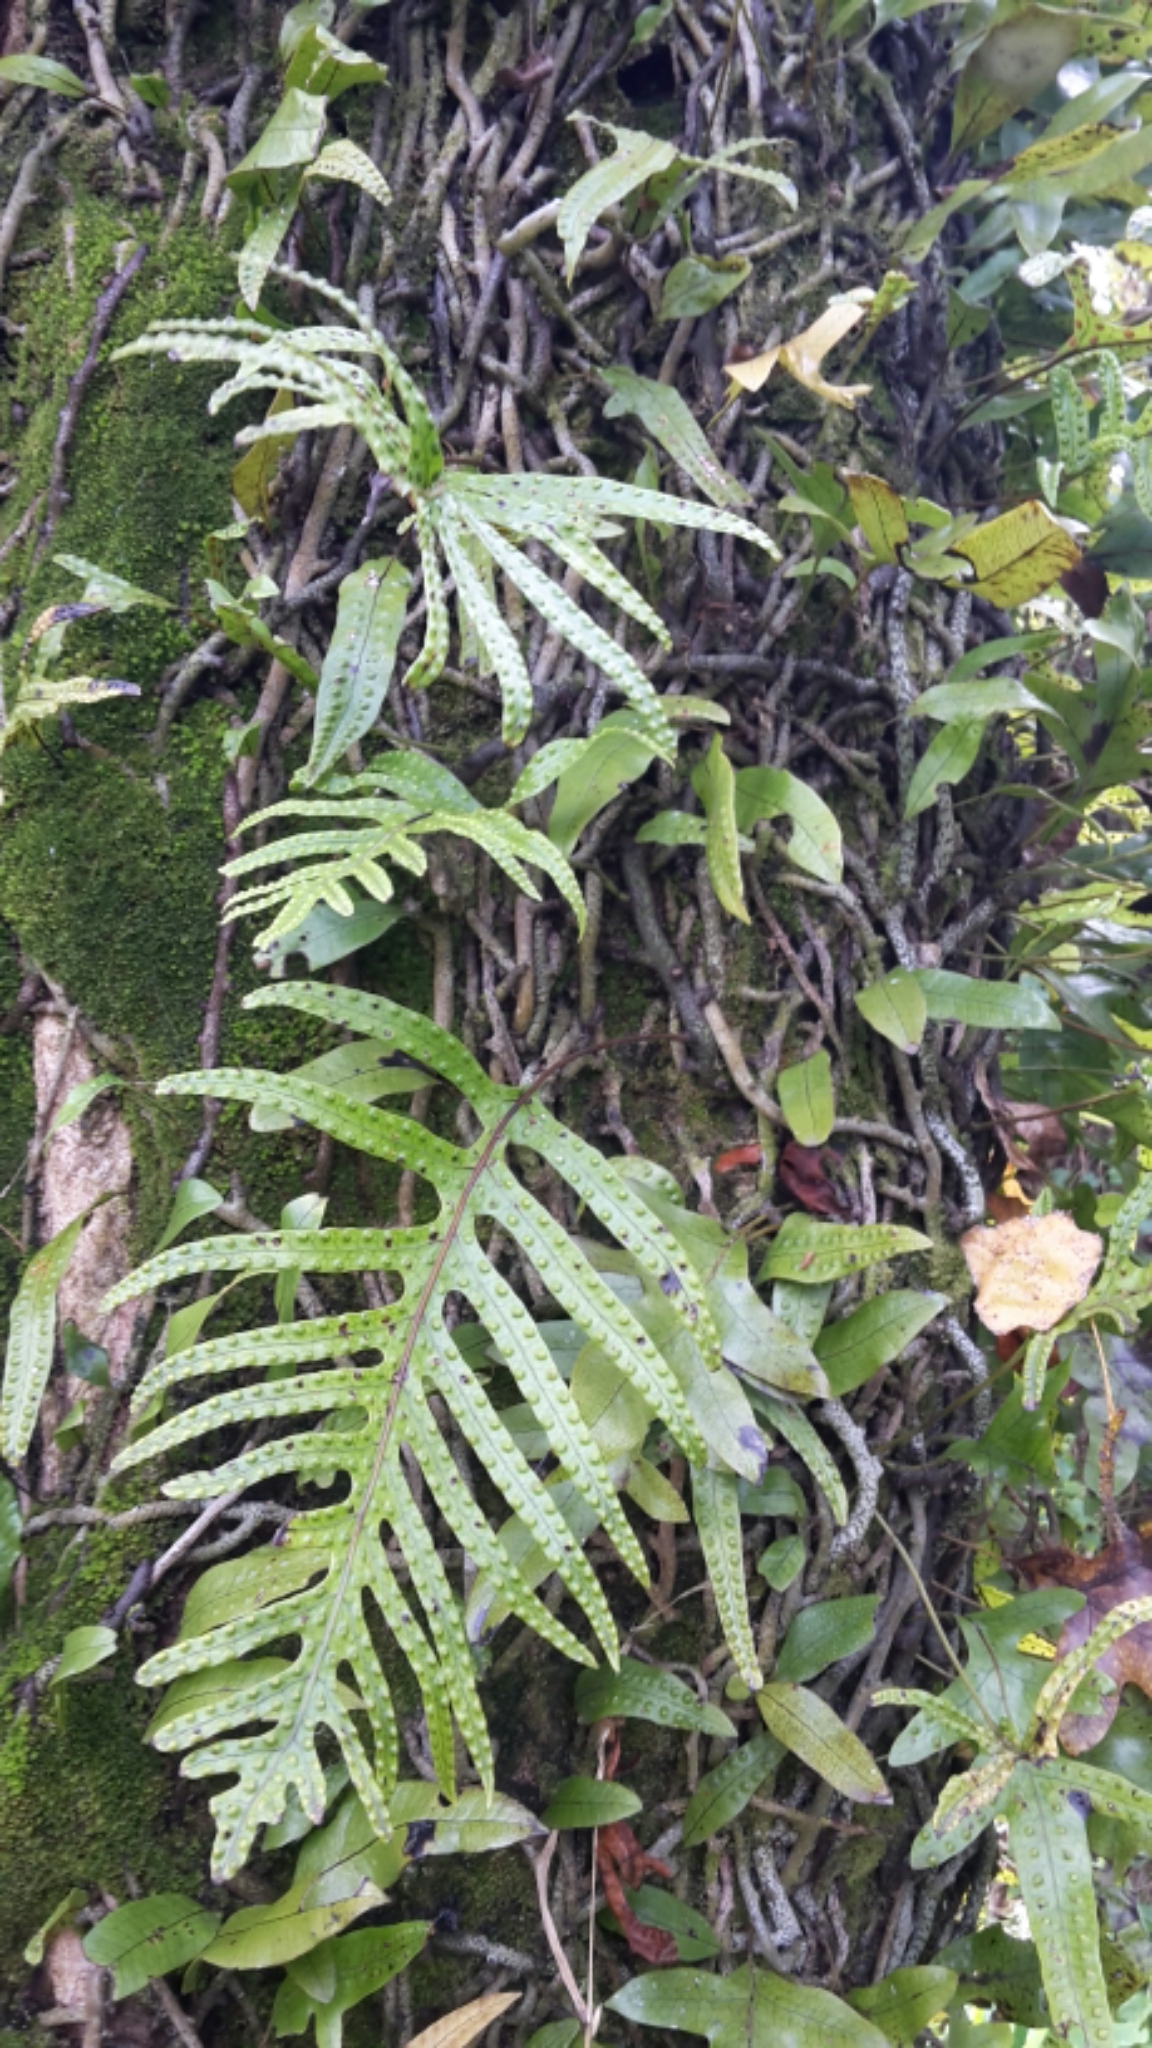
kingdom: Plantae
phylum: Tracheophyta
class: Polypodiopsida
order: Polypodiales
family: Polypodiaceae
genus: Lecanopteris
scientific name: Lecanopteris pustulata
